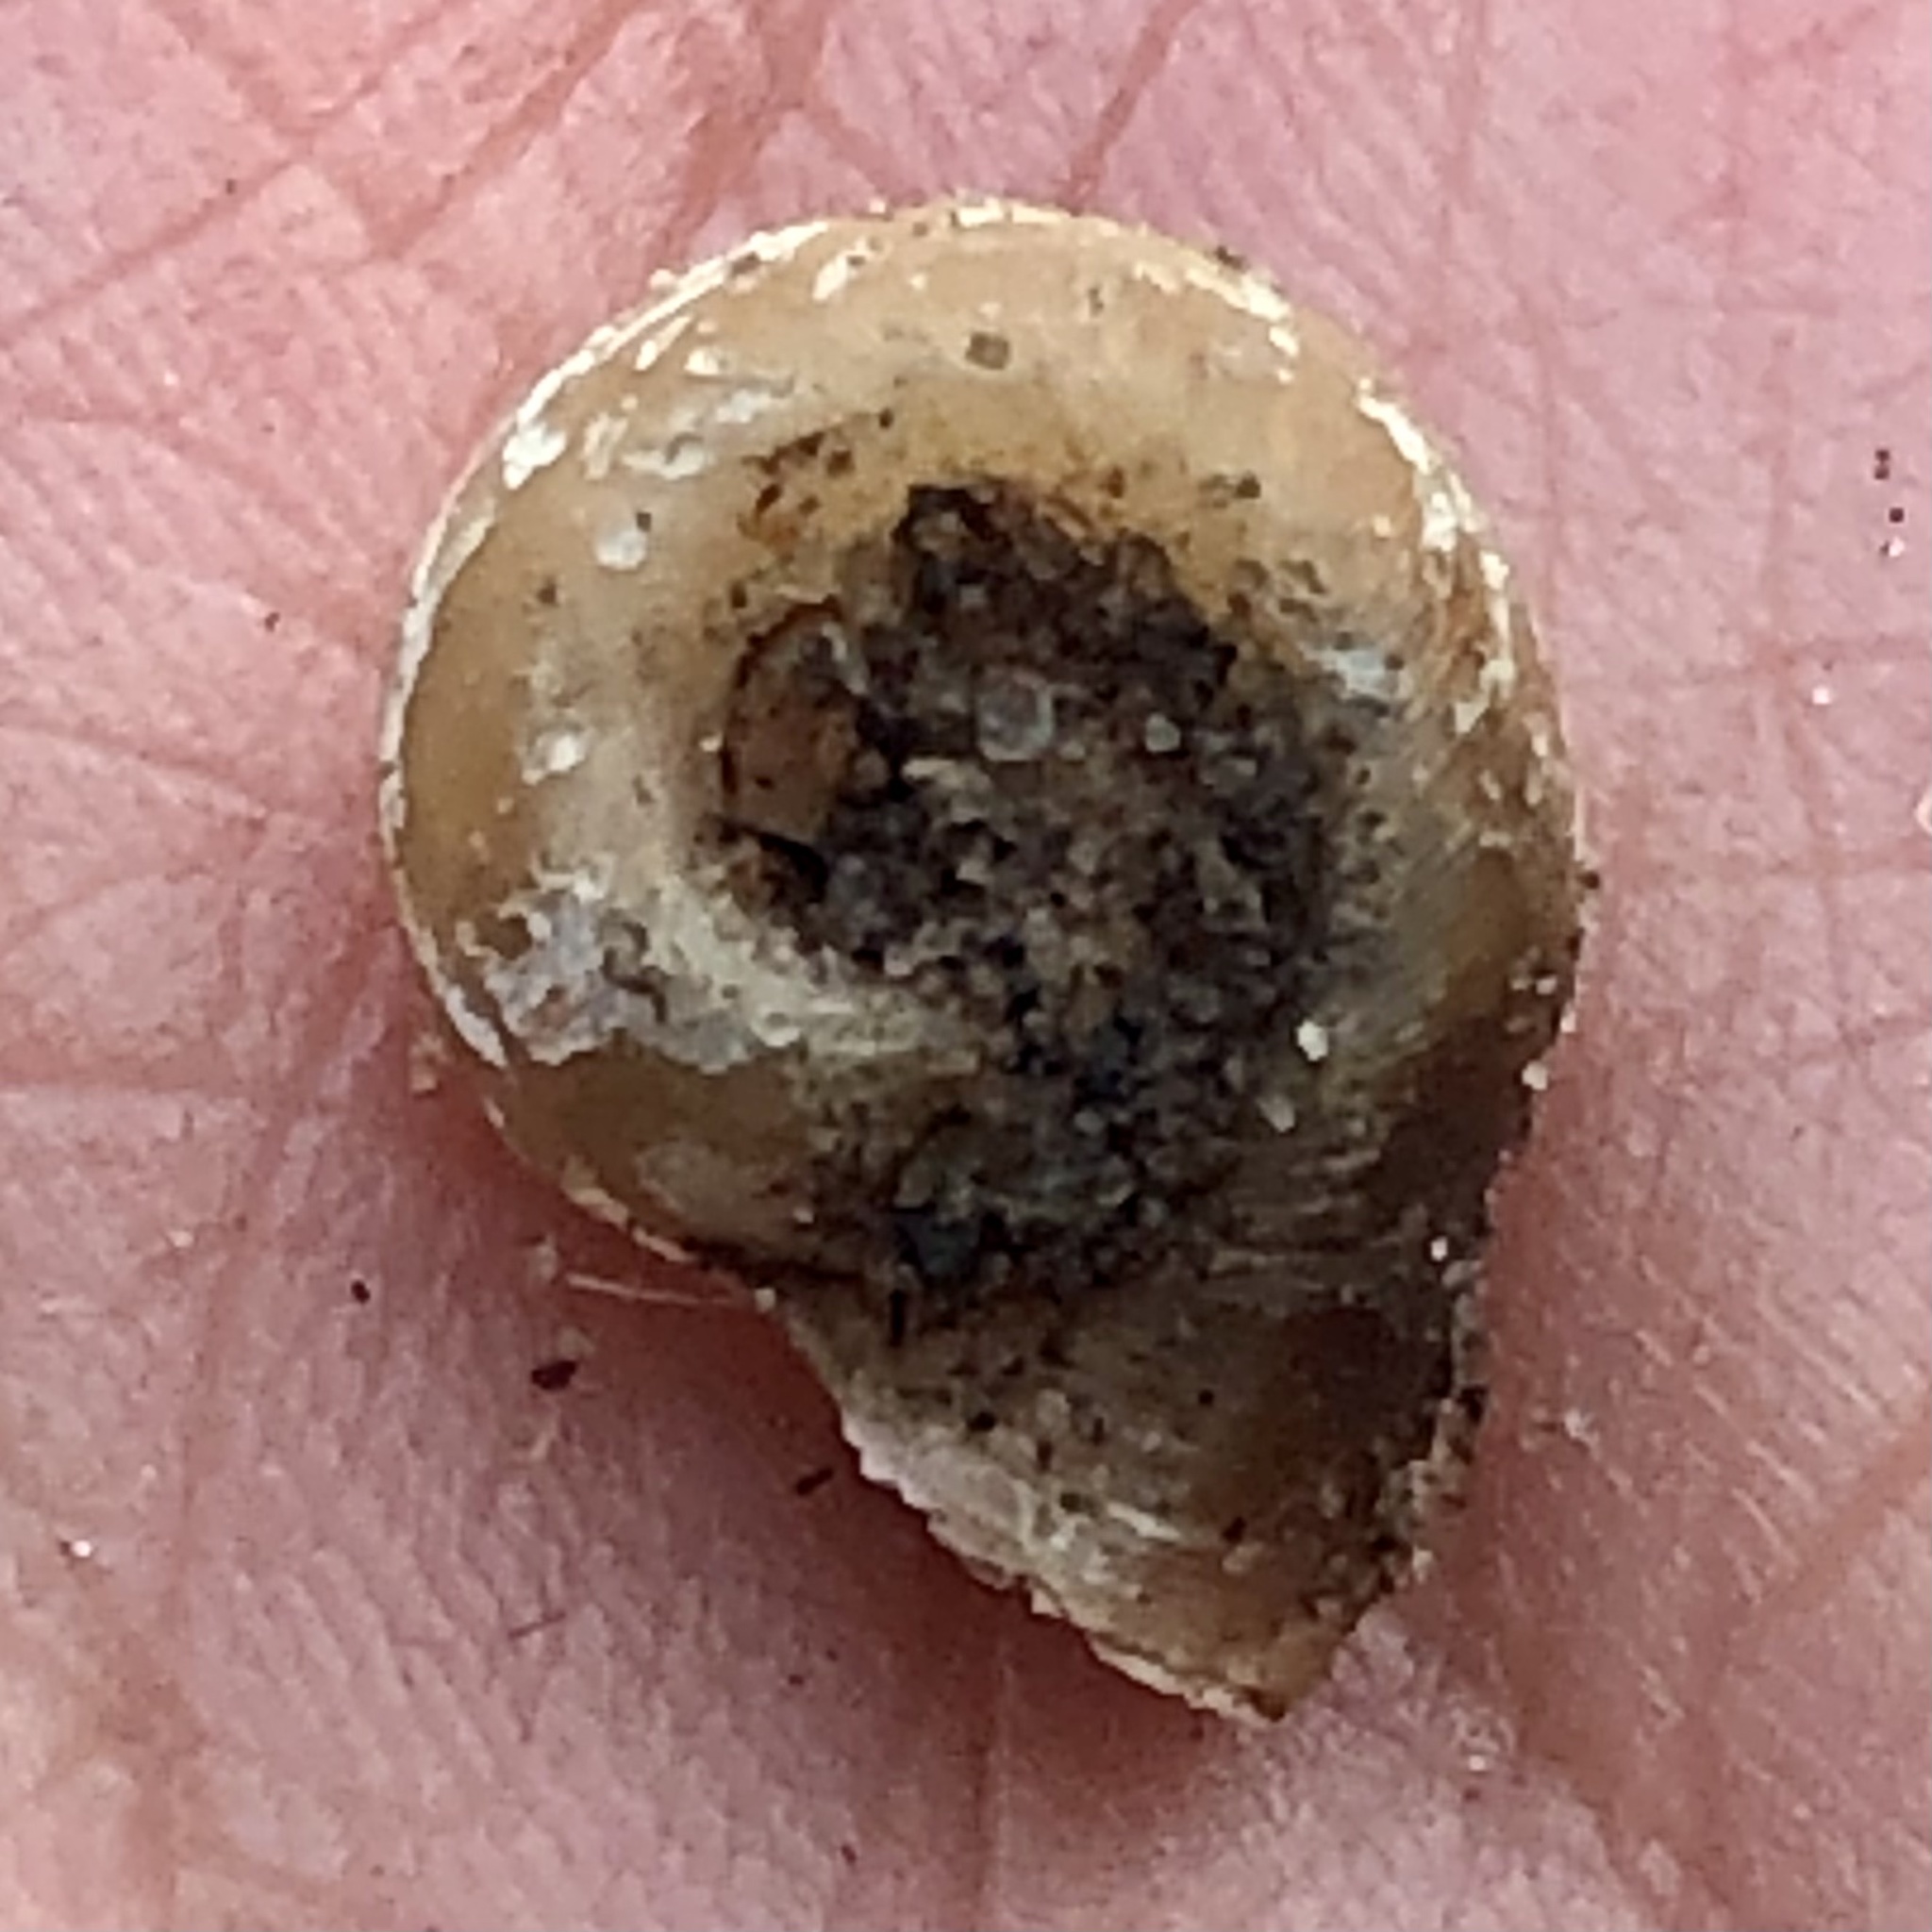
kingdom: Animalia
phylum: Mollusca
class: Gastropoda
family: Planorbidae
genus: Planorbella
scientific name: Planorbella campanulata
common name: Bellmouth ramshorn
